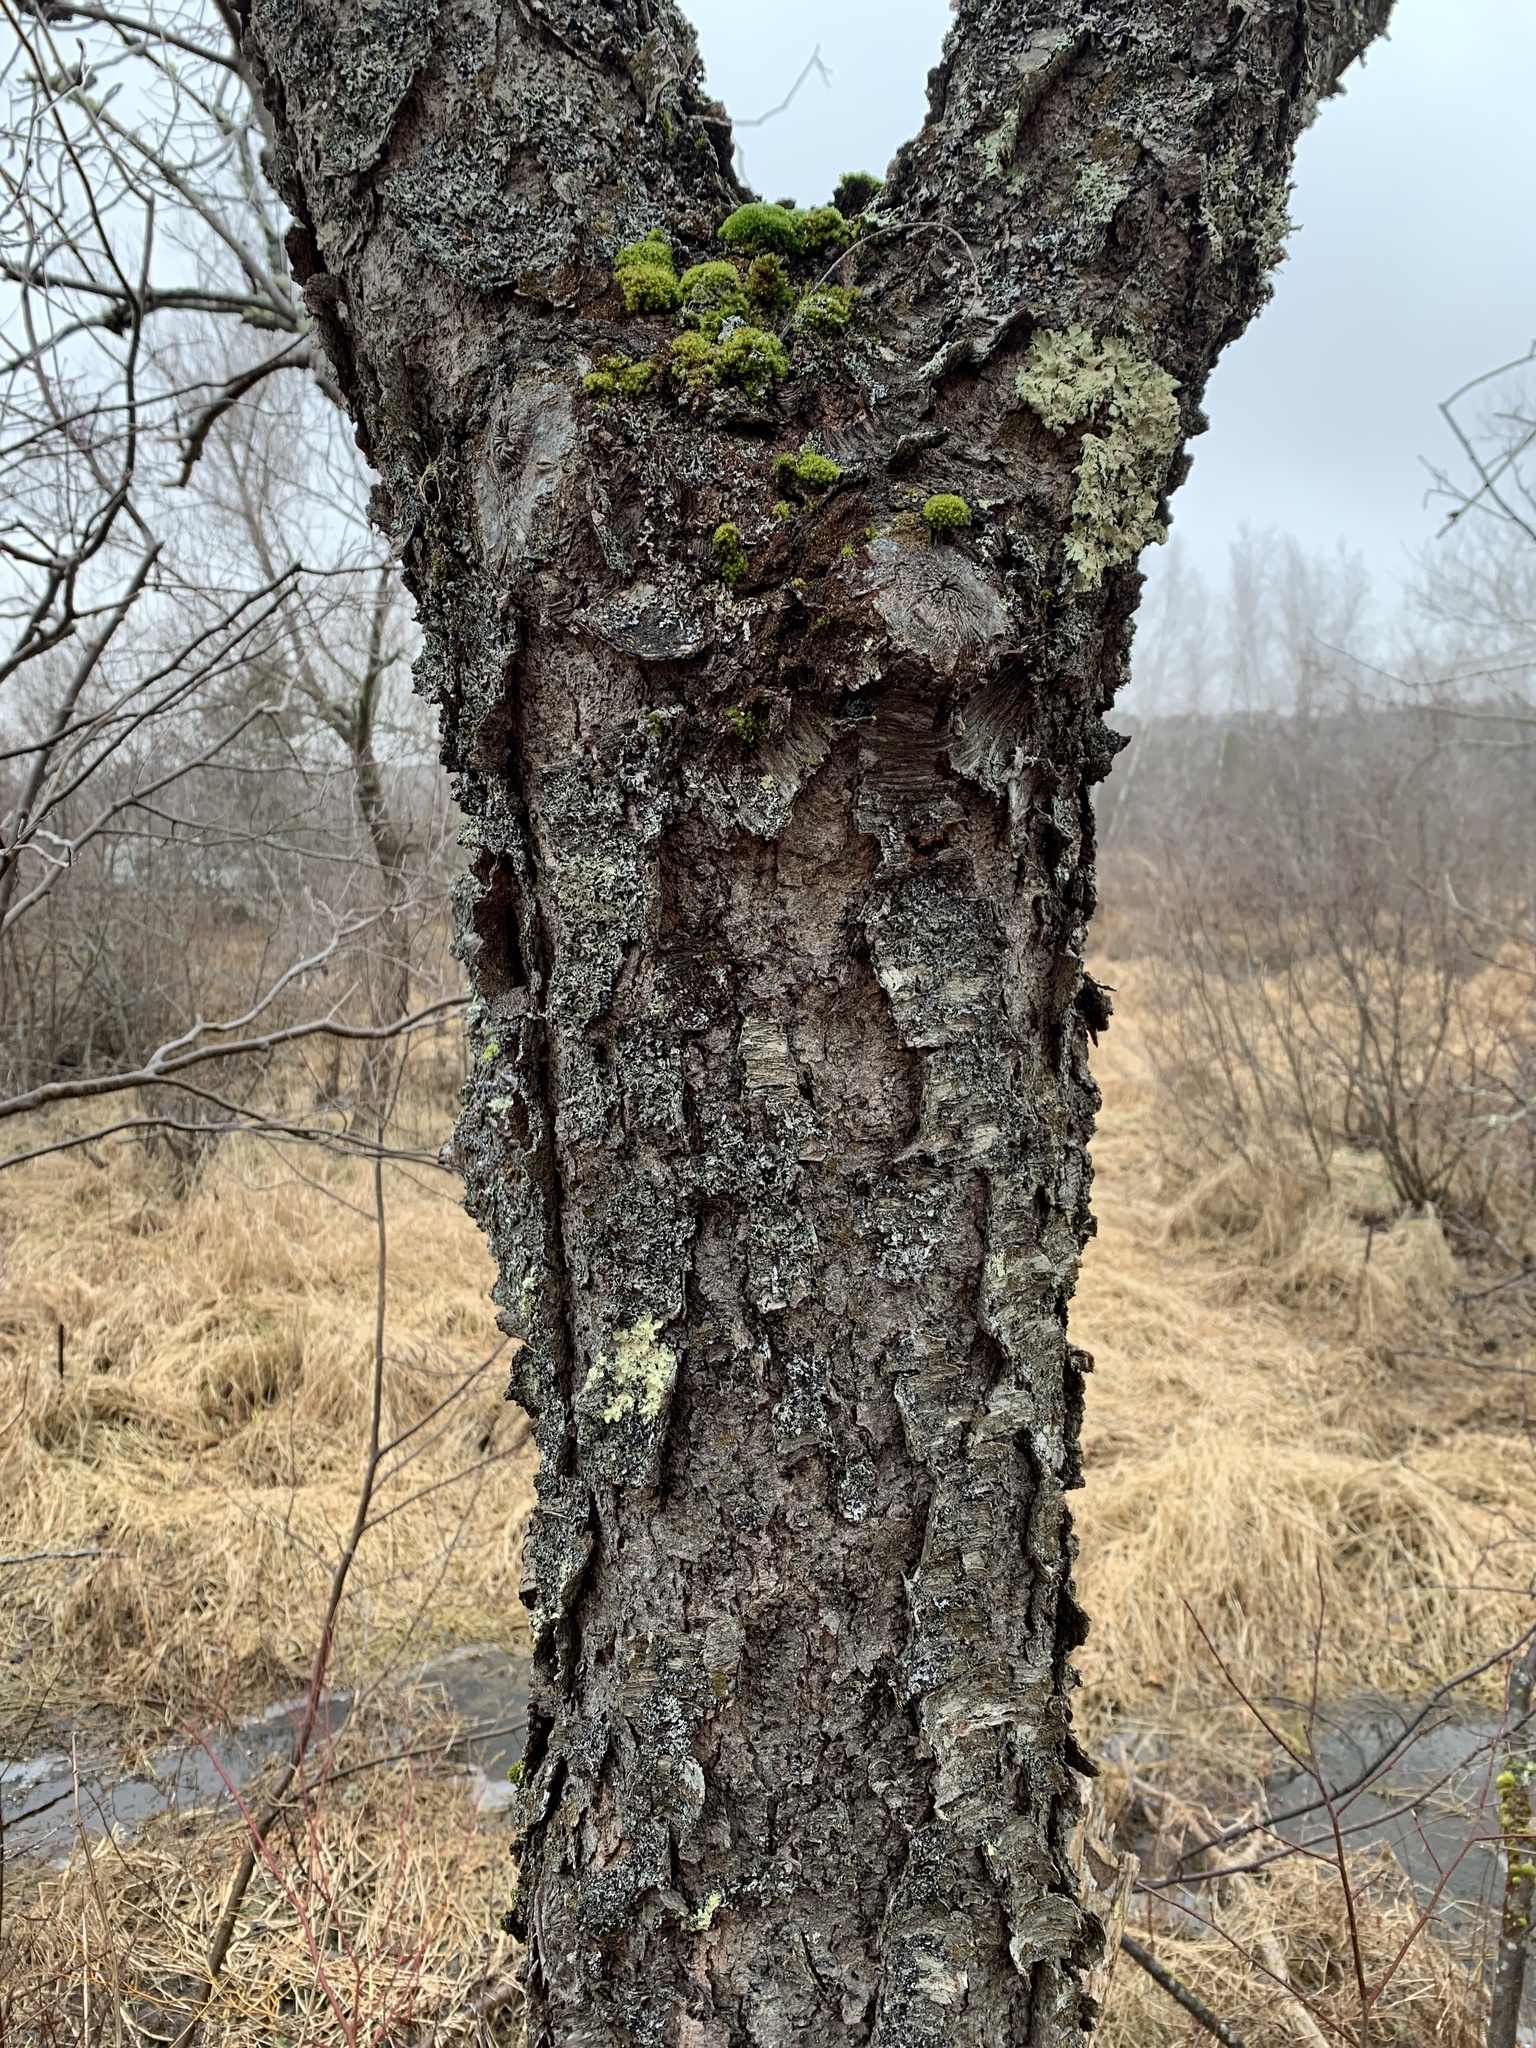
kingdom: Plantae
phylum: Tracheophyta
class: Magnoliopsida
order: Rosales
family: Rosaceae
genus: Prunus
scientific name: Prunus serotina
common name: Black cherry
